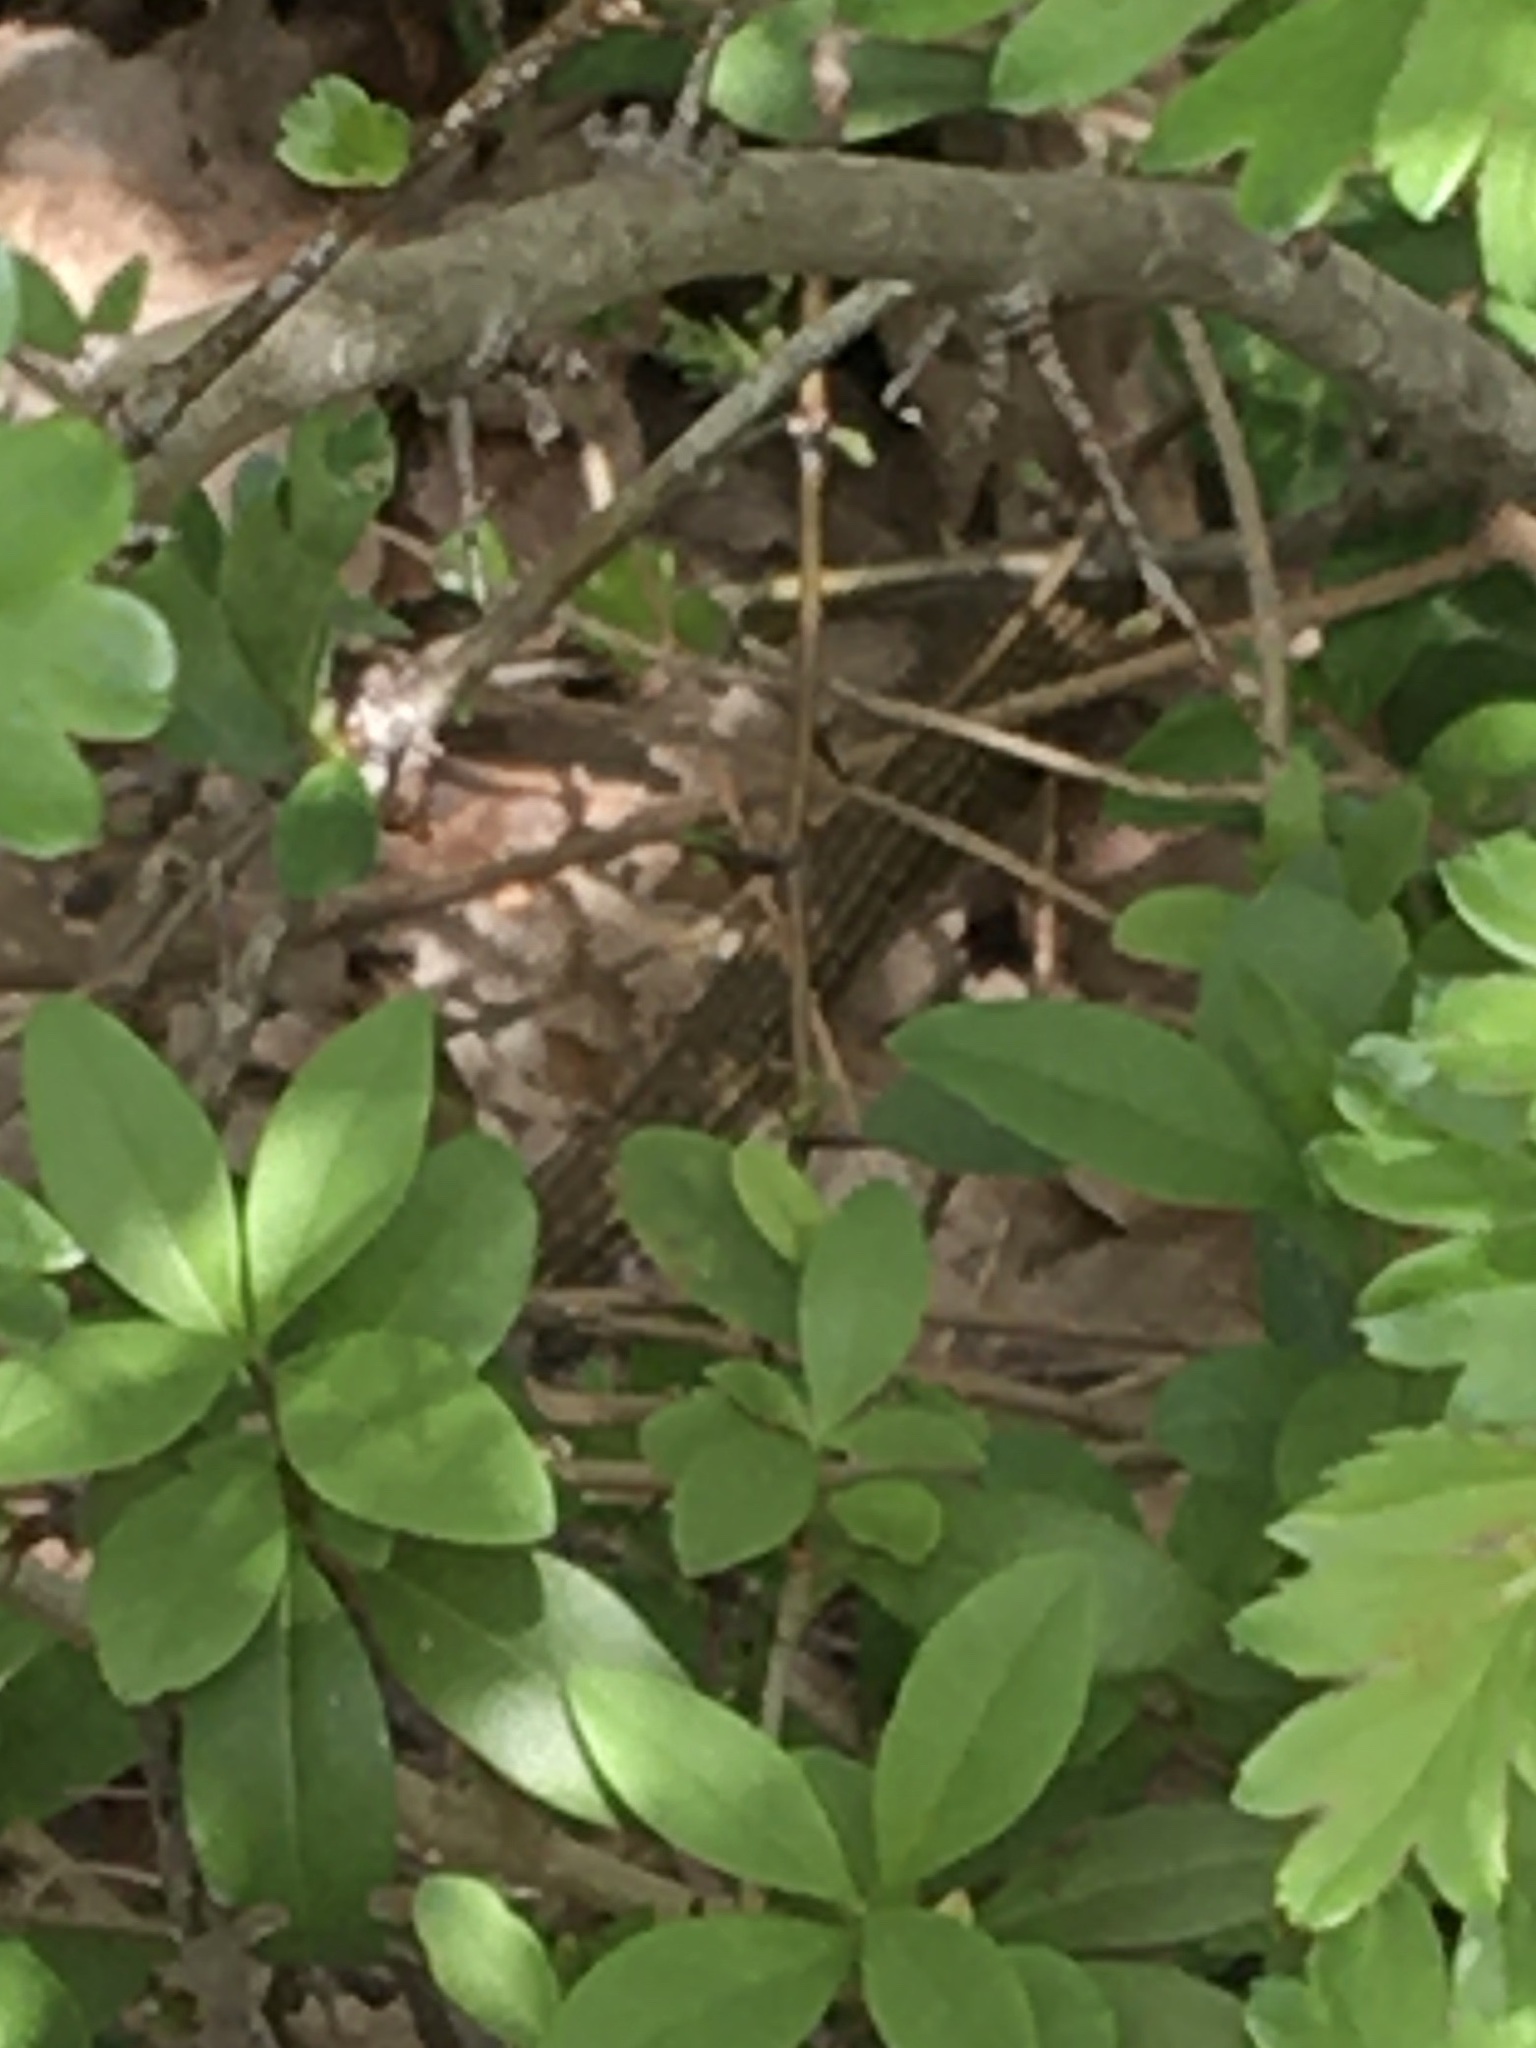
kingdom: Animalia
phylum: Chordata
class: Squamata
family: Colubridae
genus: Hierophis
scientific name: Hierophis viridiflavus
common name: Green whip snake
